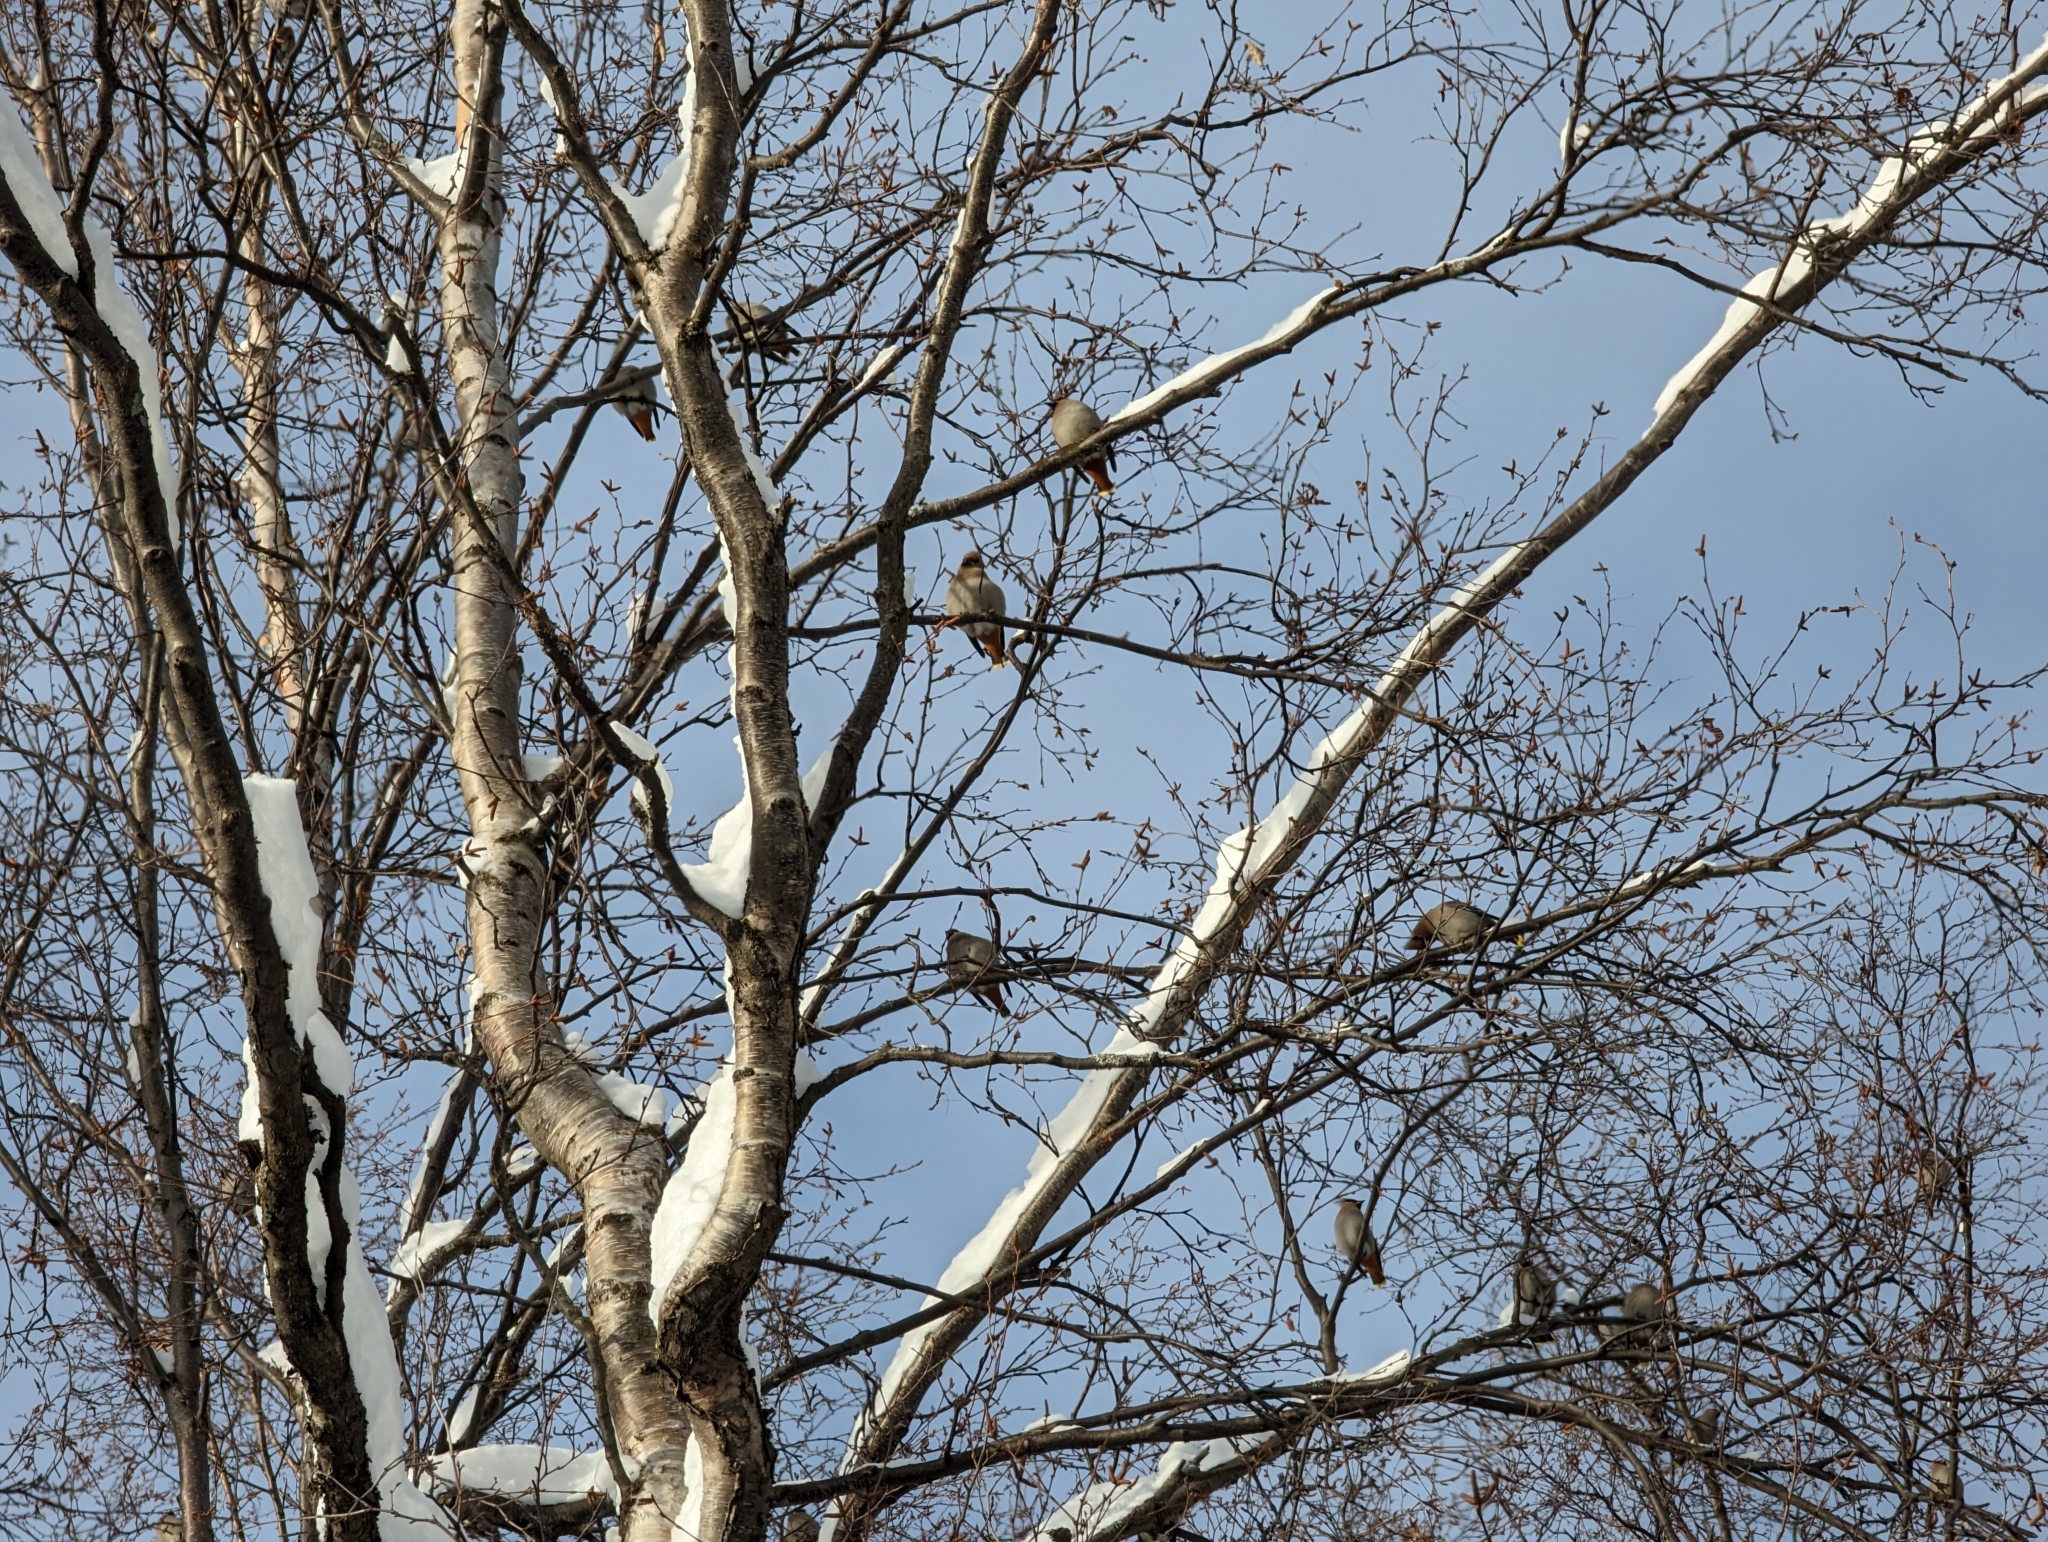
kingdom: Animalia
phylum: Chordata
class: Aves
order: Passeriformes
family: Bombycillidae
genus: Bombycilla
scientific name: Bombycilla garrulus
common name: Bohemian waxwing
